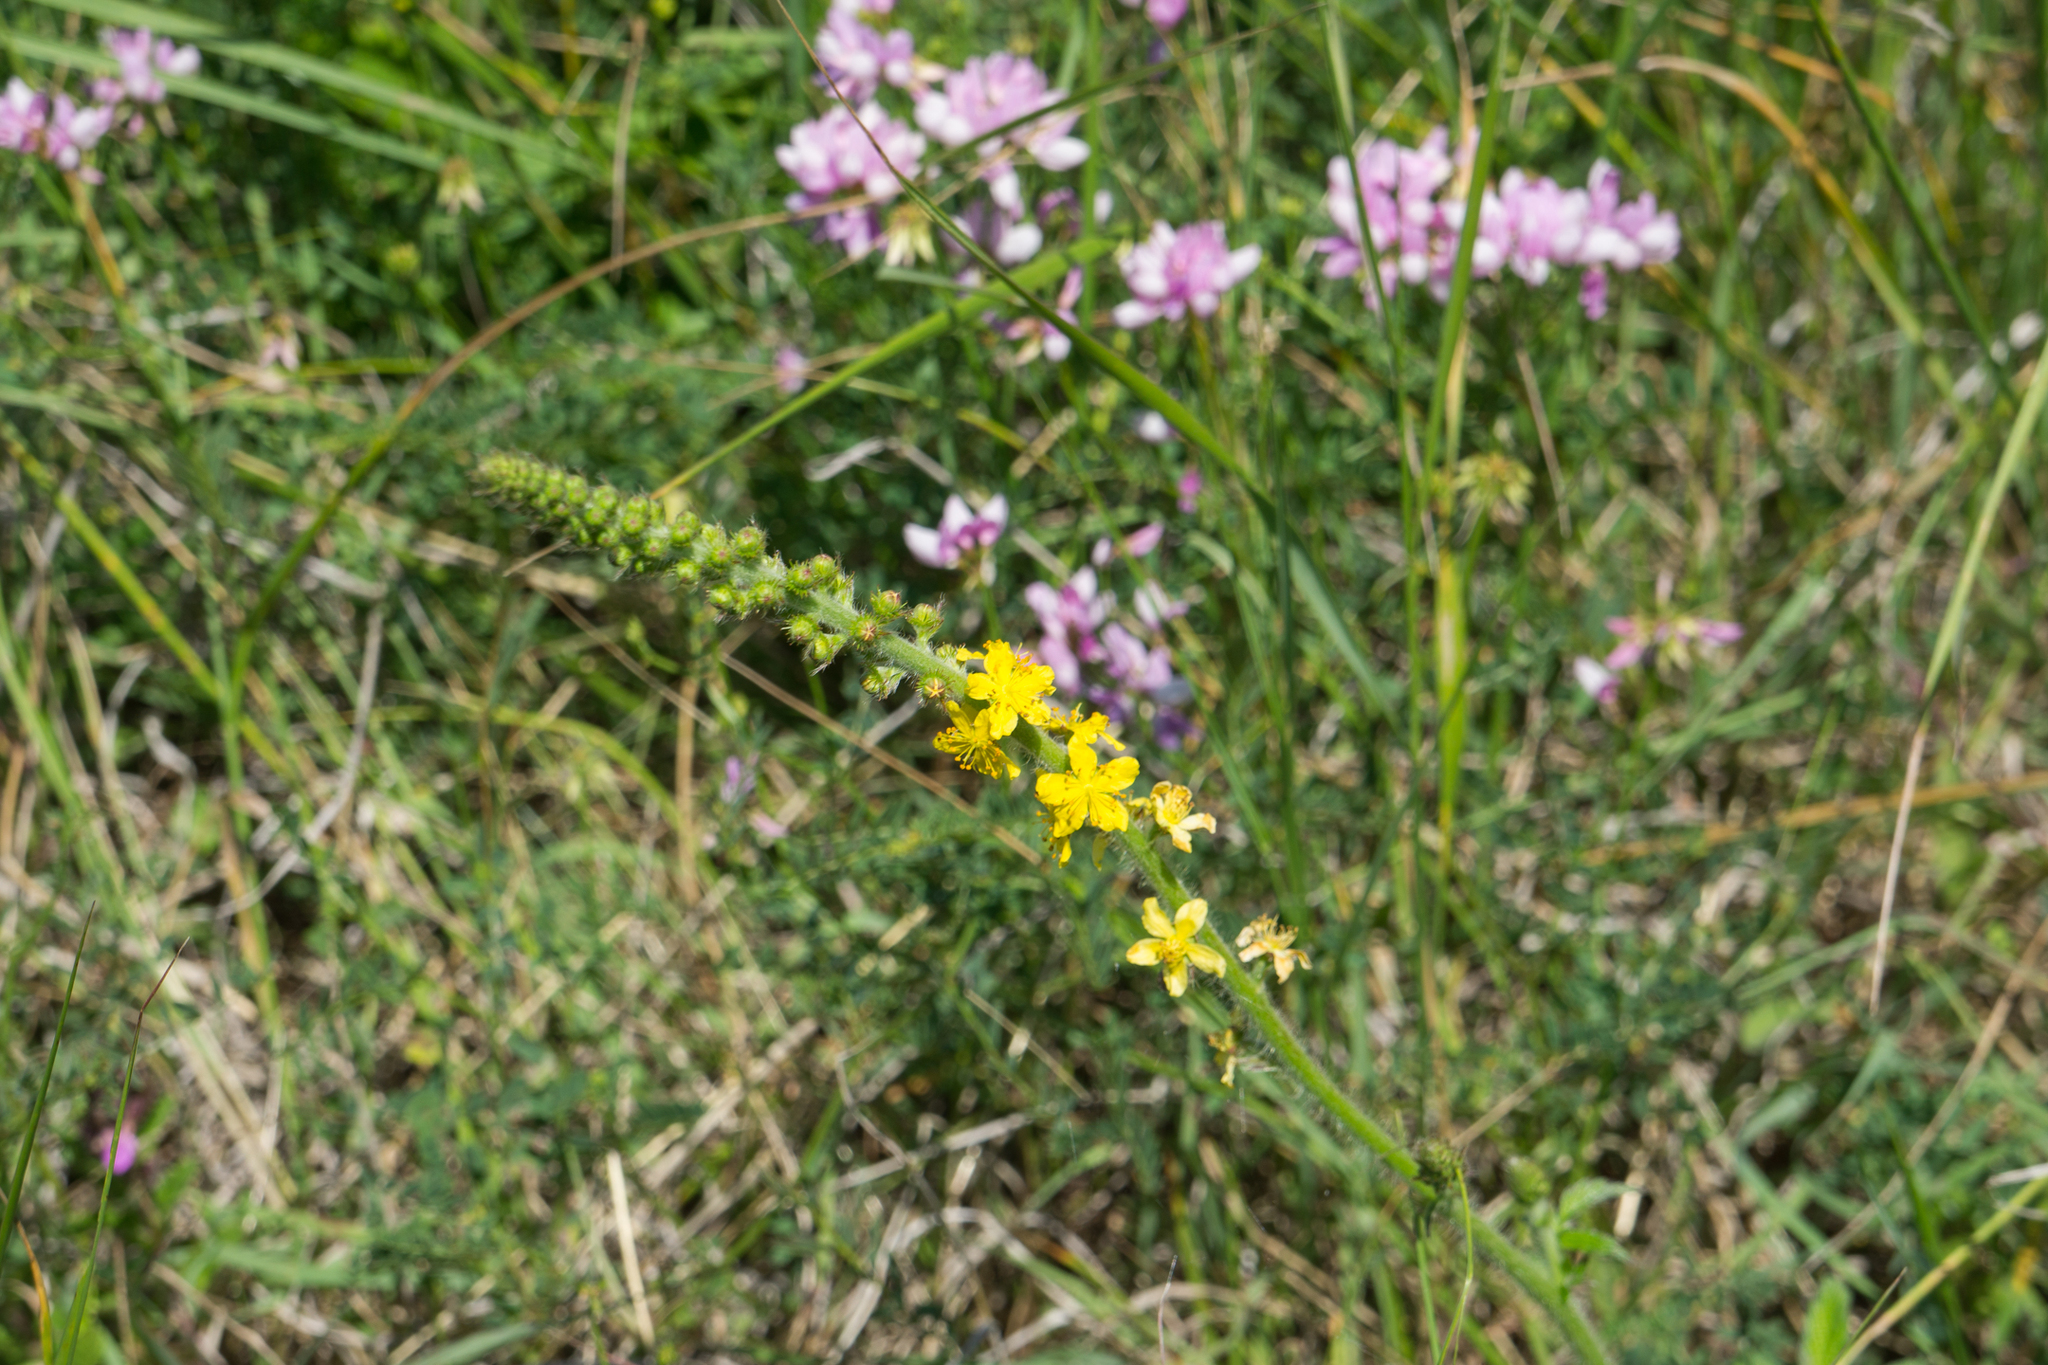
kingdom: Plantae
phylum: Tracheophyta
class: Magnoliopsida
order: Rosales
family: Rosaceae
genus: Agrimonia
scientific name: Agrimonia eupatoria
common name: Agrimony
